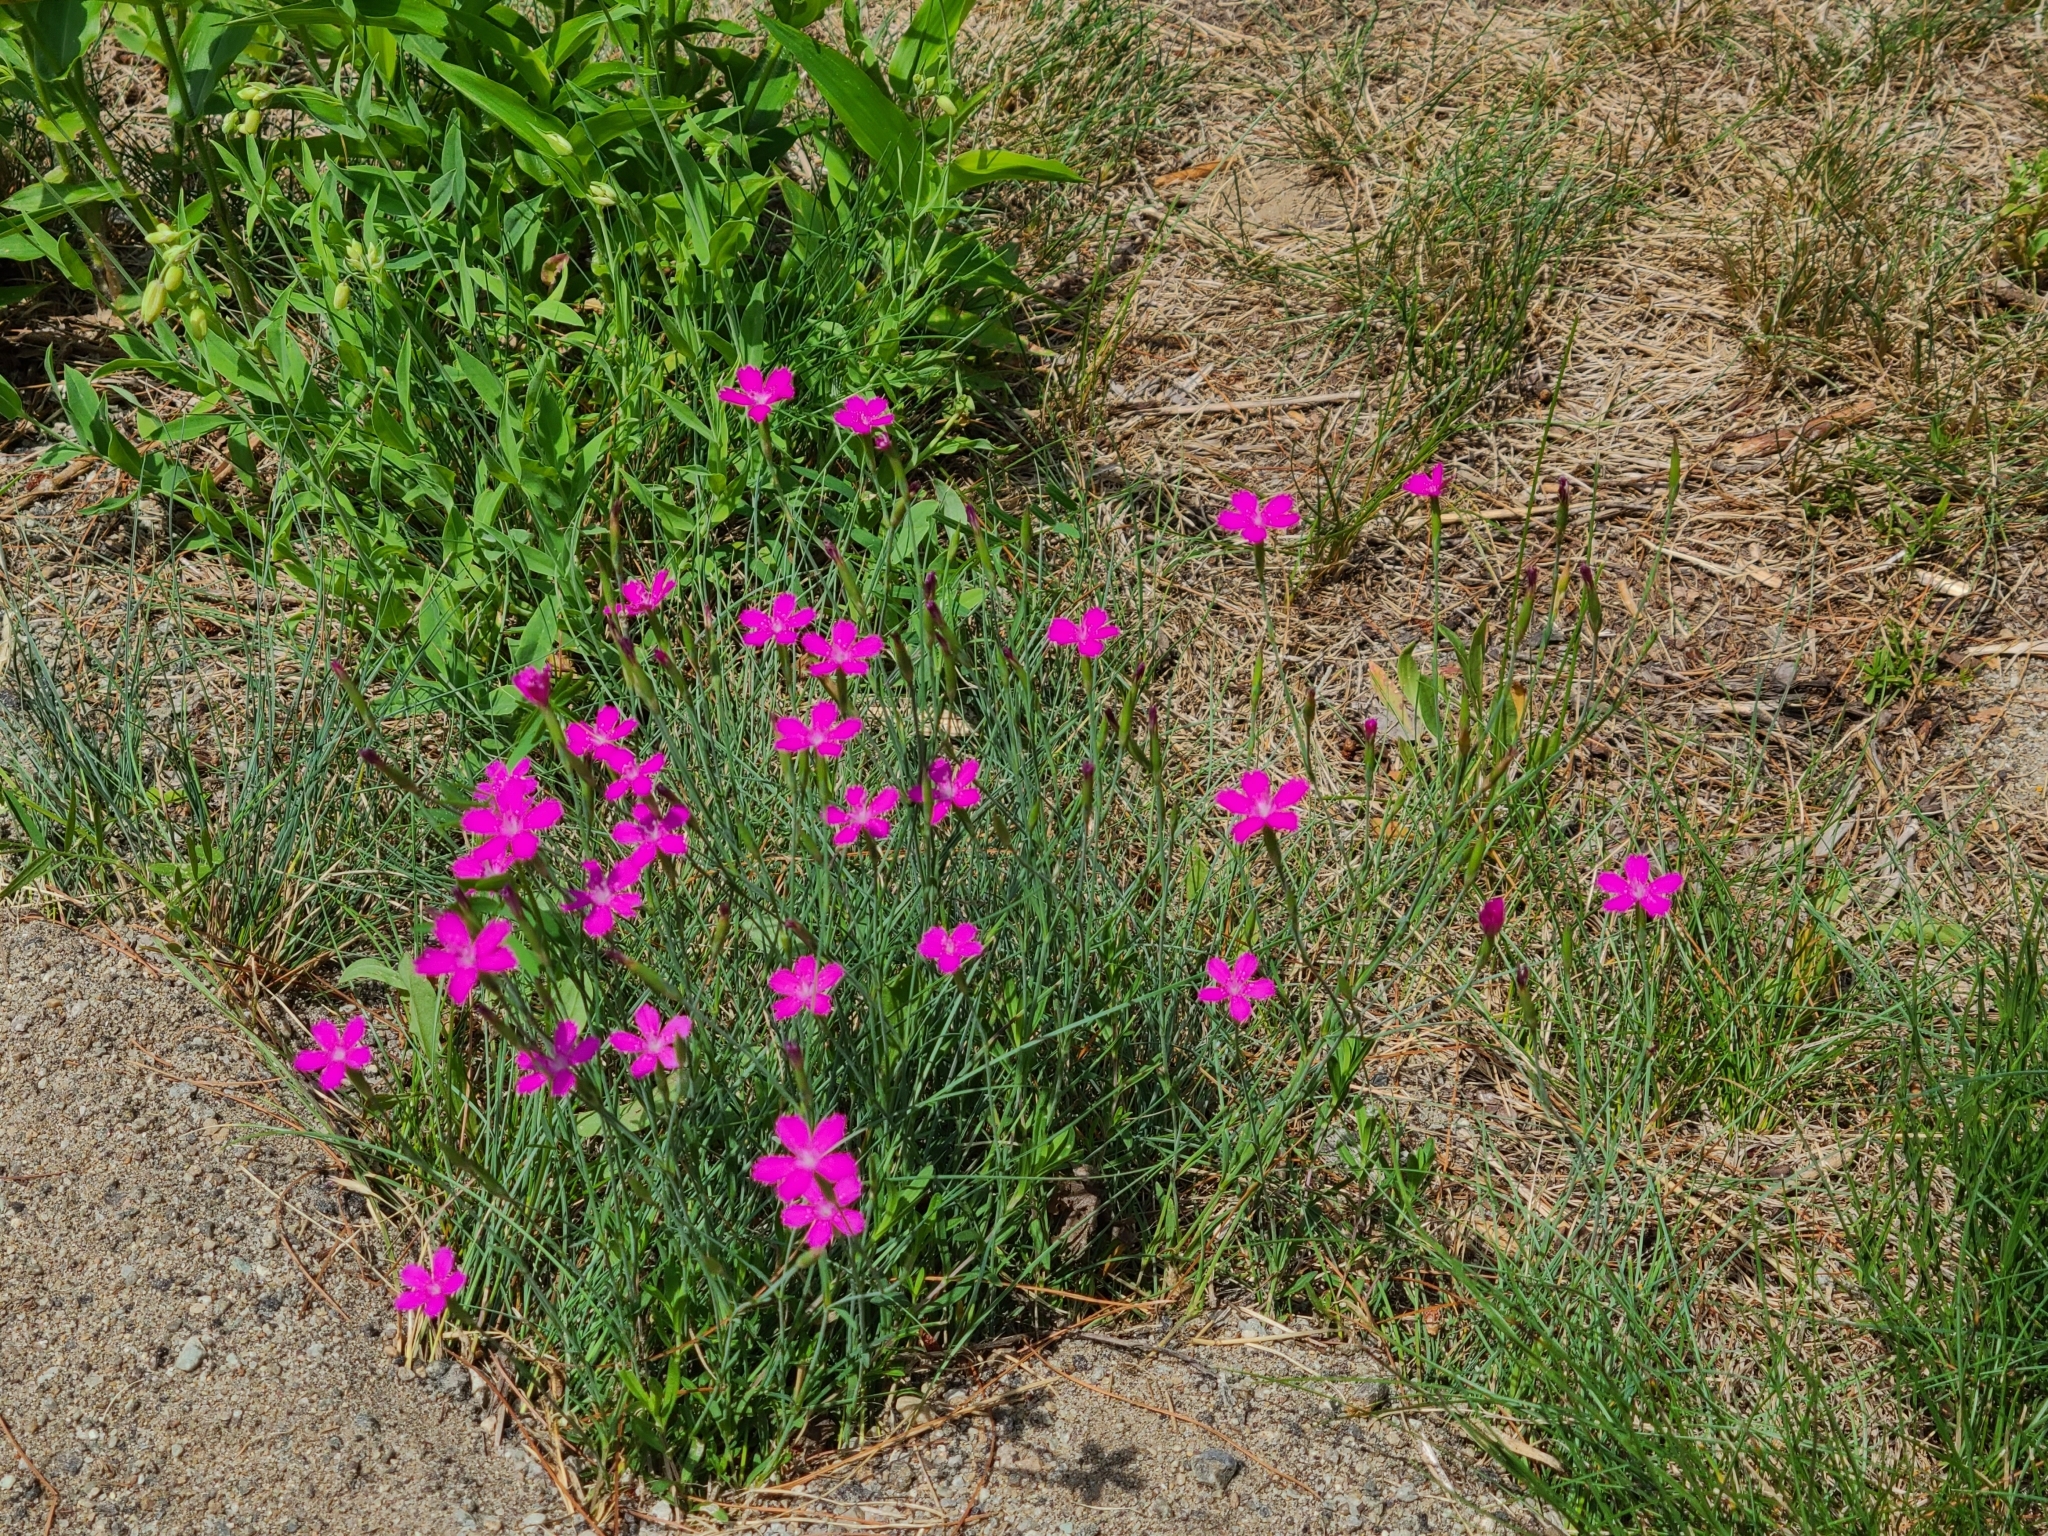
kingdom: Plantae
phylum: Tracheophyta
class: Magnoliopsida
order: Caryophyllales
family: Caryophyllaceae
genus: Dianthus
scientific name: Dianthus deltoides
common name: Maiden pink
